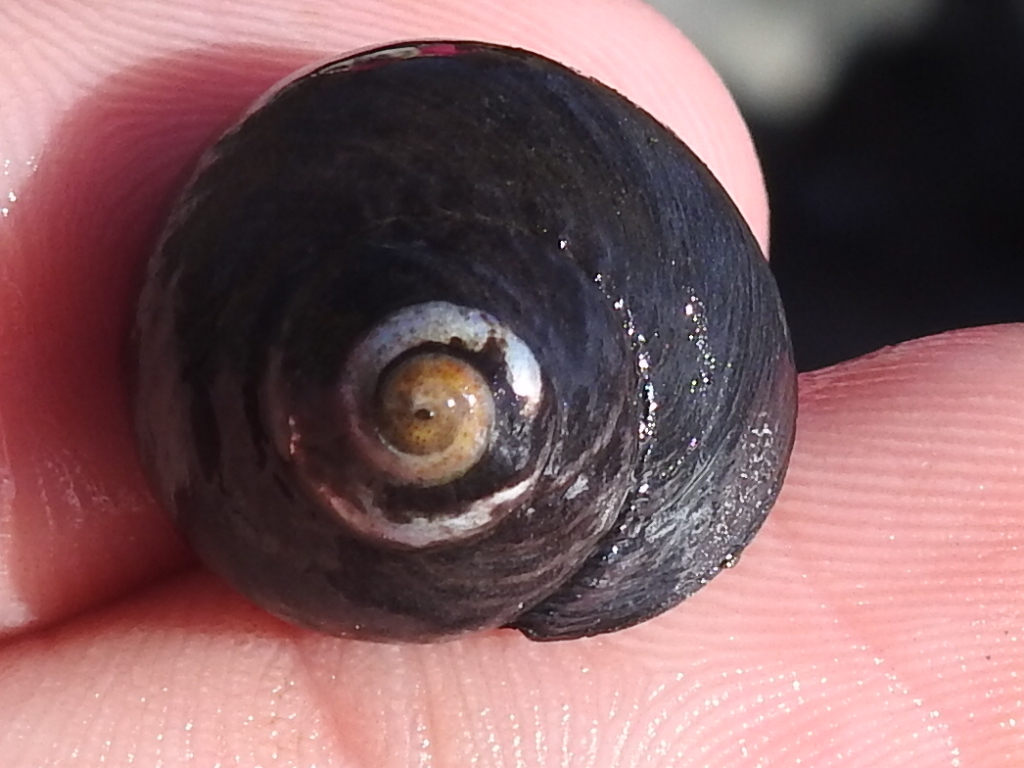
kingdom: Animalia
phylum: Mollusca
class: Gastropoda
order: Trochida
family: Tegulidae
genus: Tegula
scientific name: Tegula funebralis
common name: Black tegula
